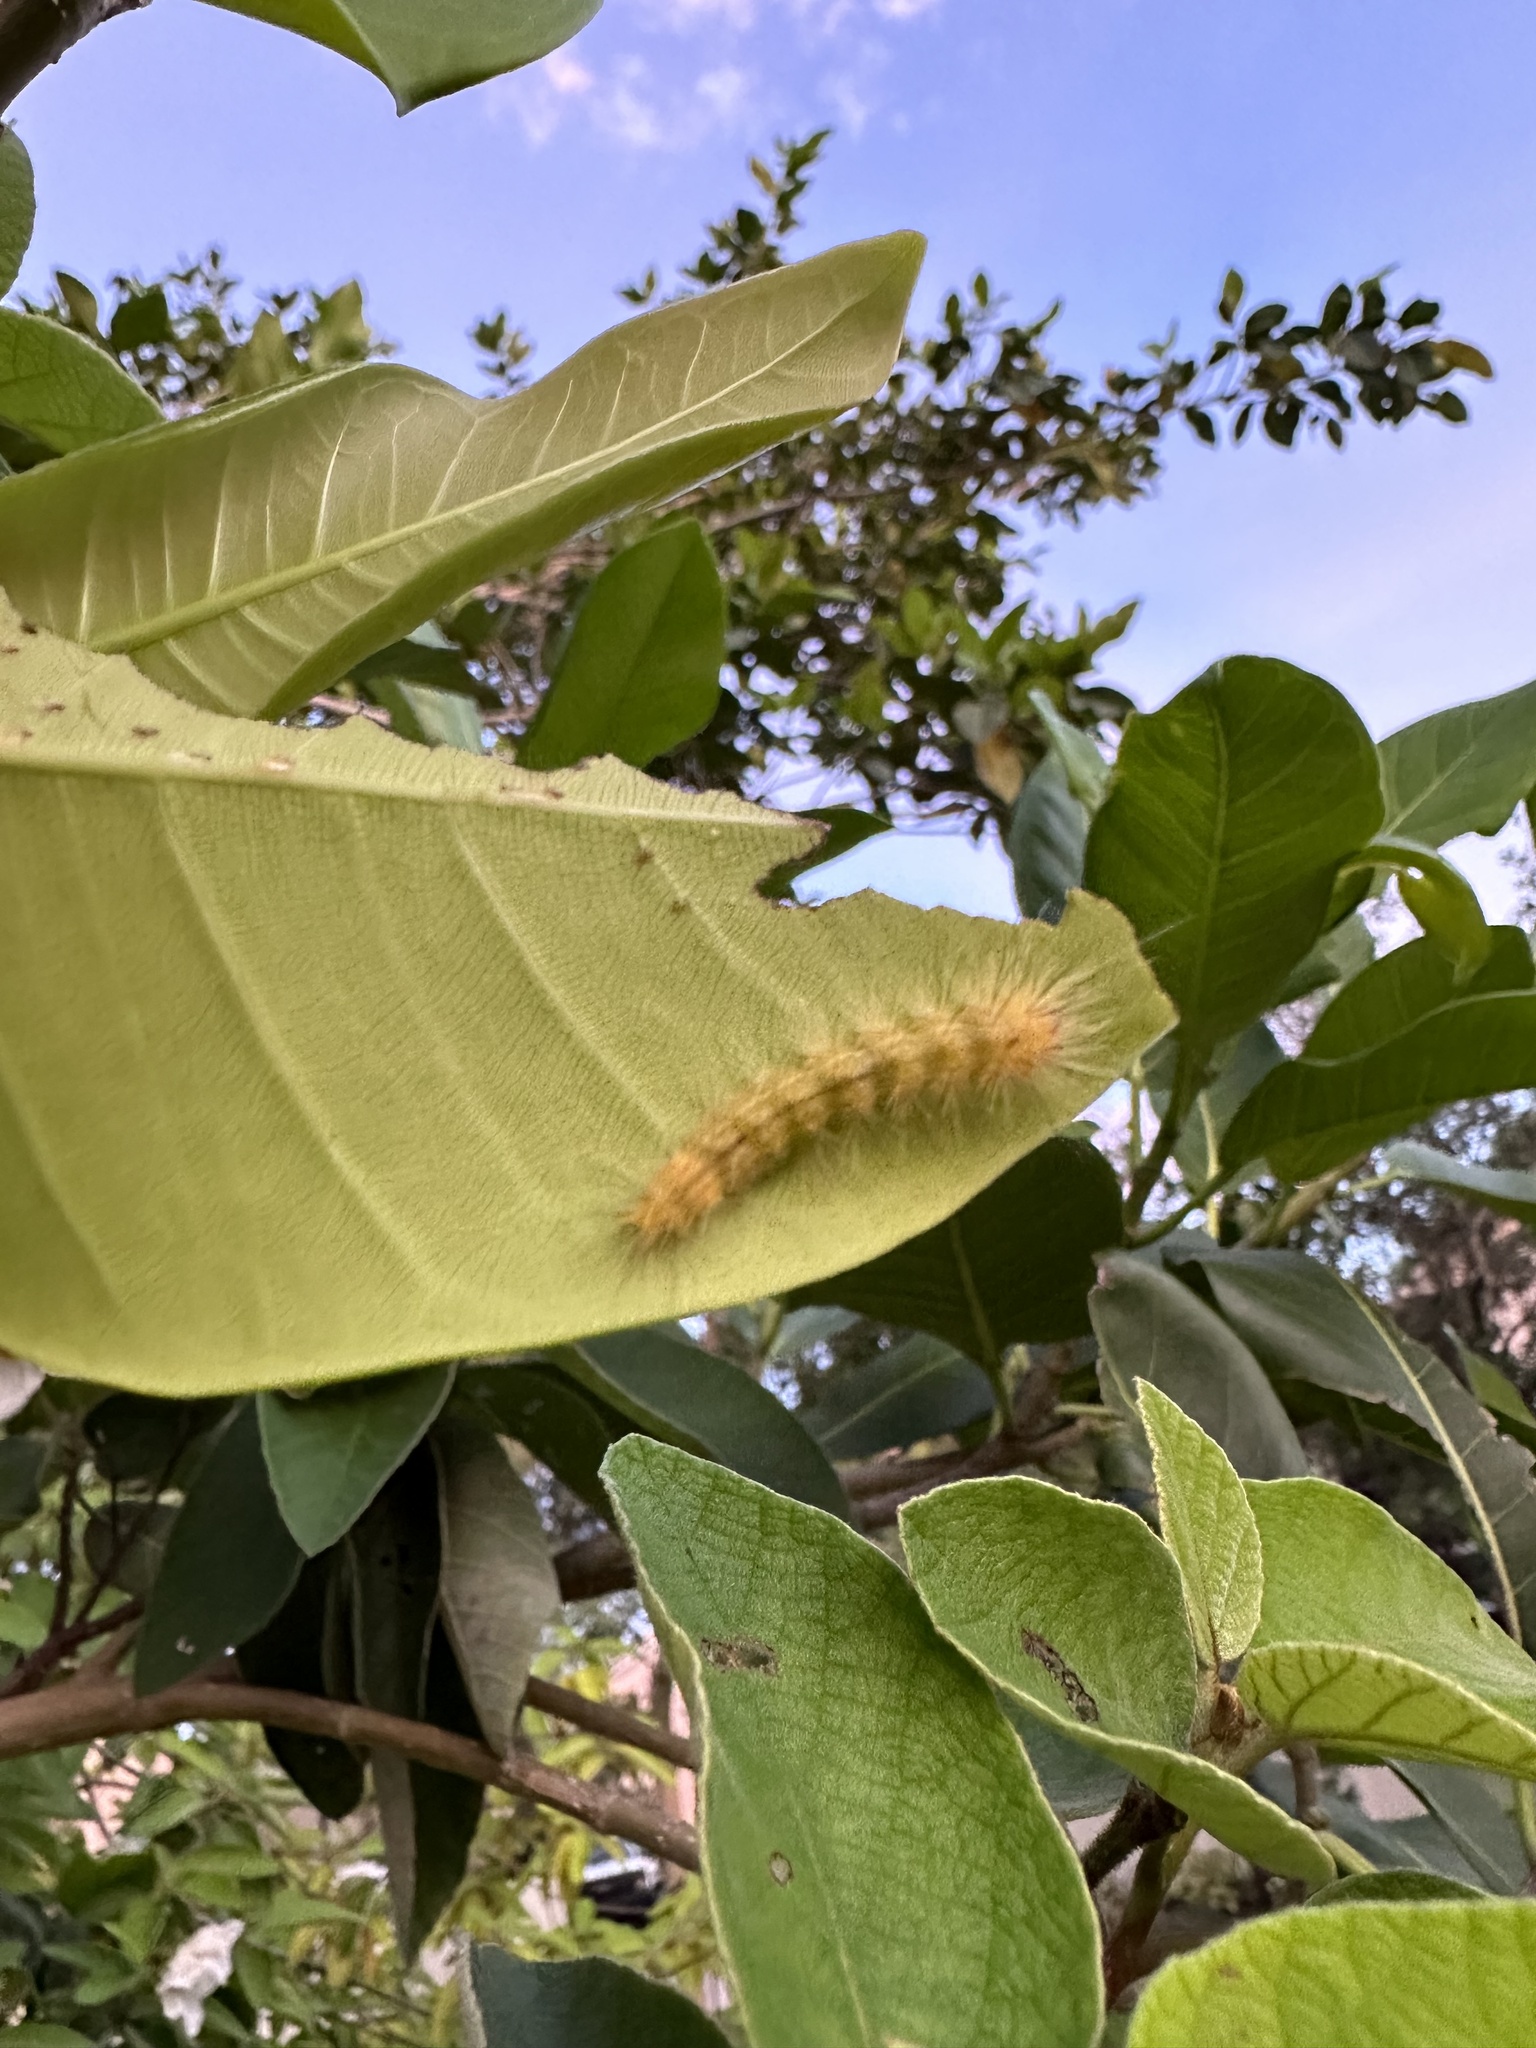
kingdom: Animalia
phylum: Arthropoda
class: Insecta
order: Lepidoptera
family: Erebidae
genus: Lymire
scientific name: Lymire edwardsii
